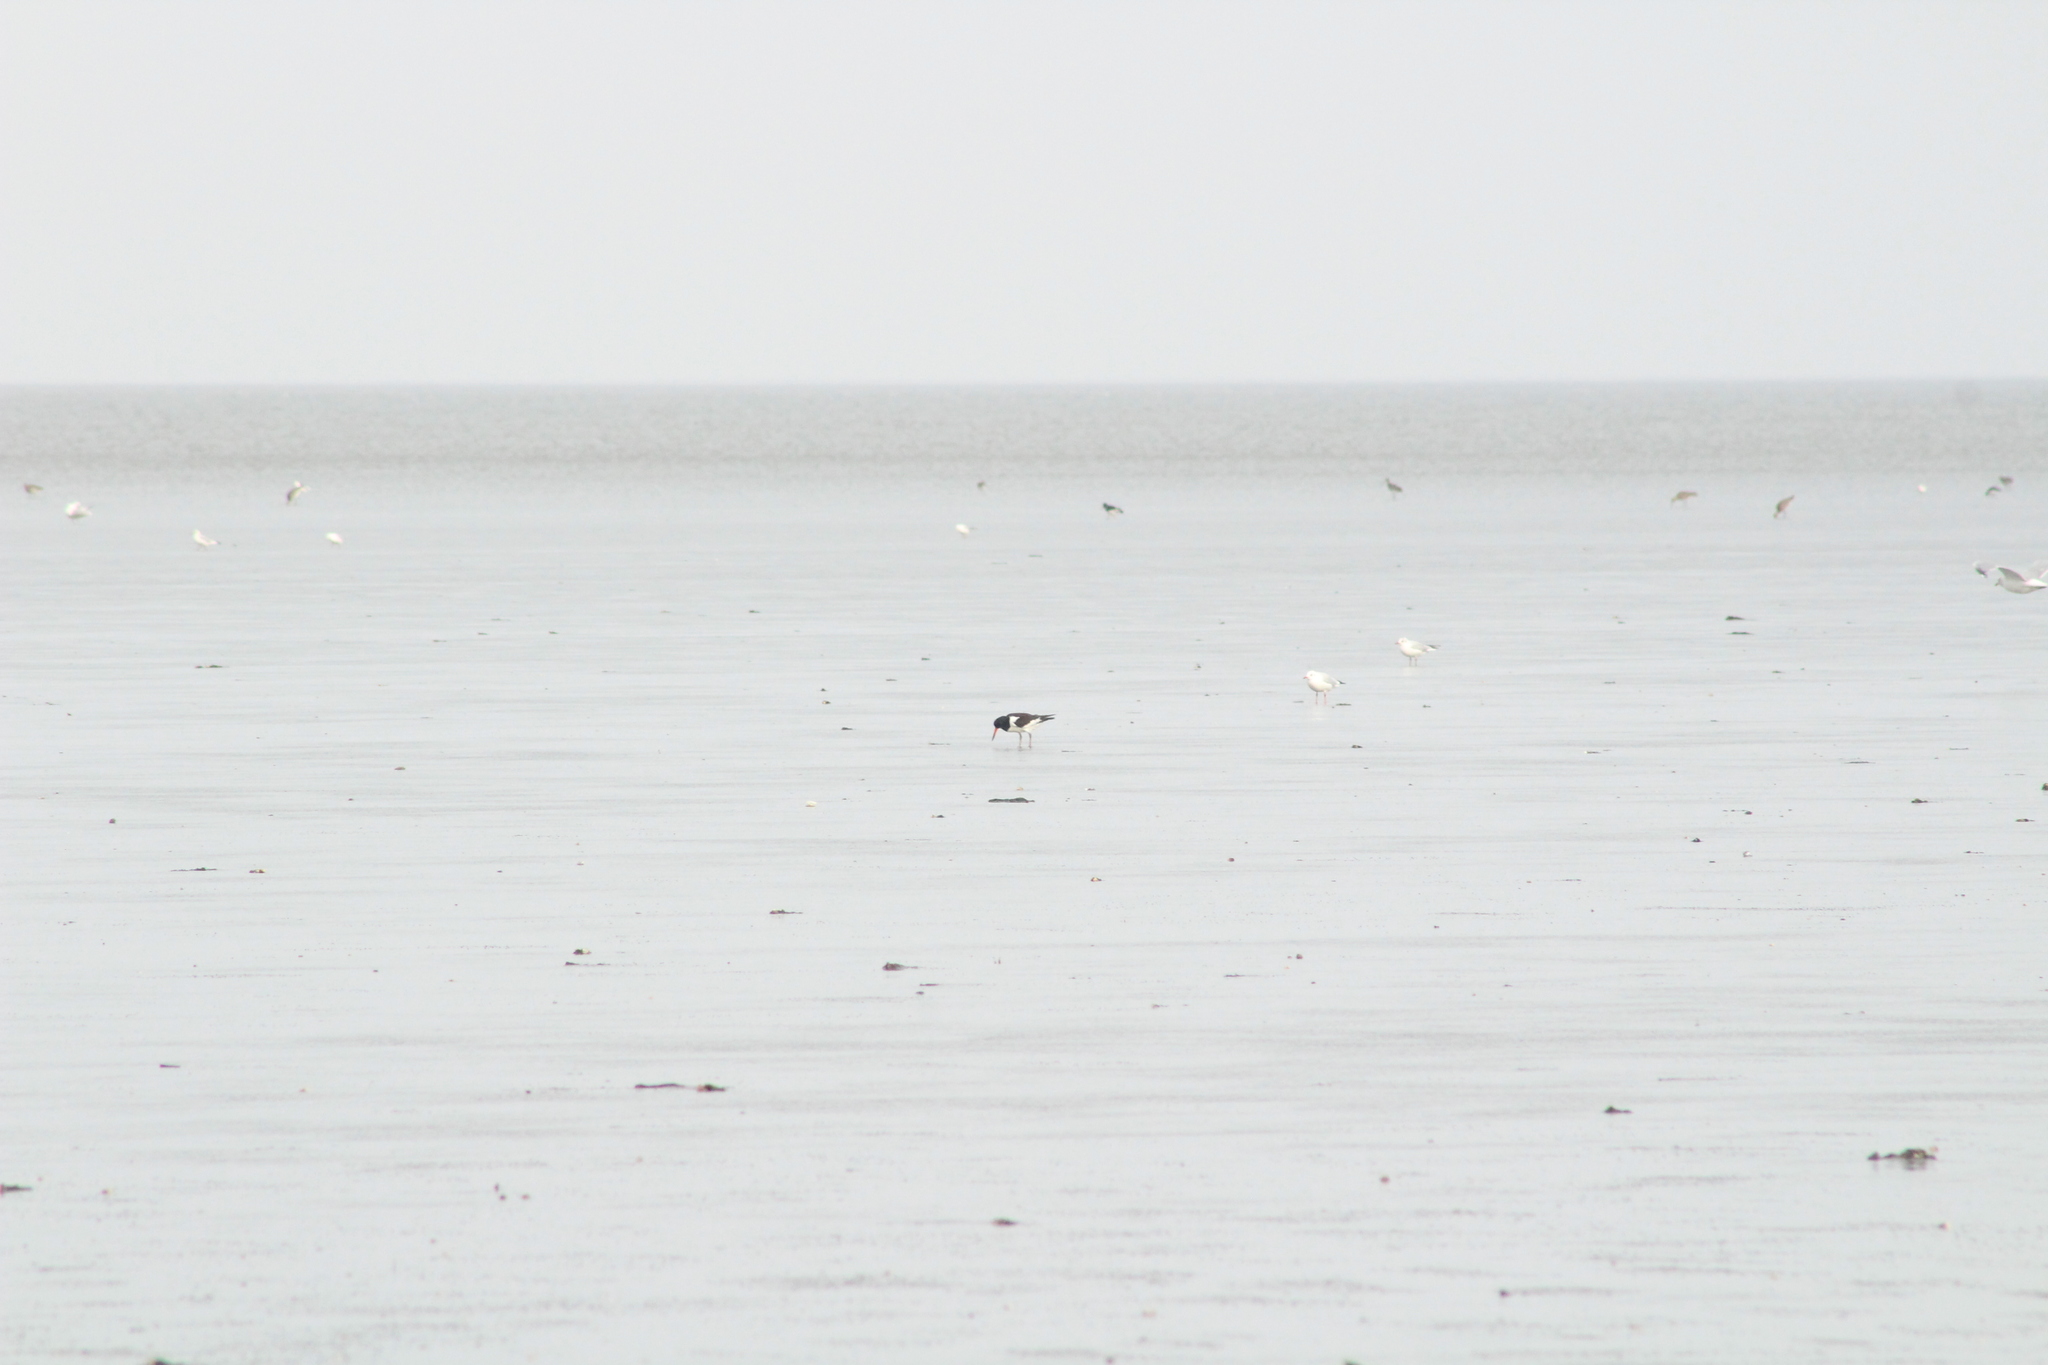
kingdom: Animalia
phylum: Chordata
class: Aves
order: Charadriiformes
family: Haematopodidae
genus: Haematopus
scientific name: Haematopus ostralegus
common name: Eurasian oystercatcher
